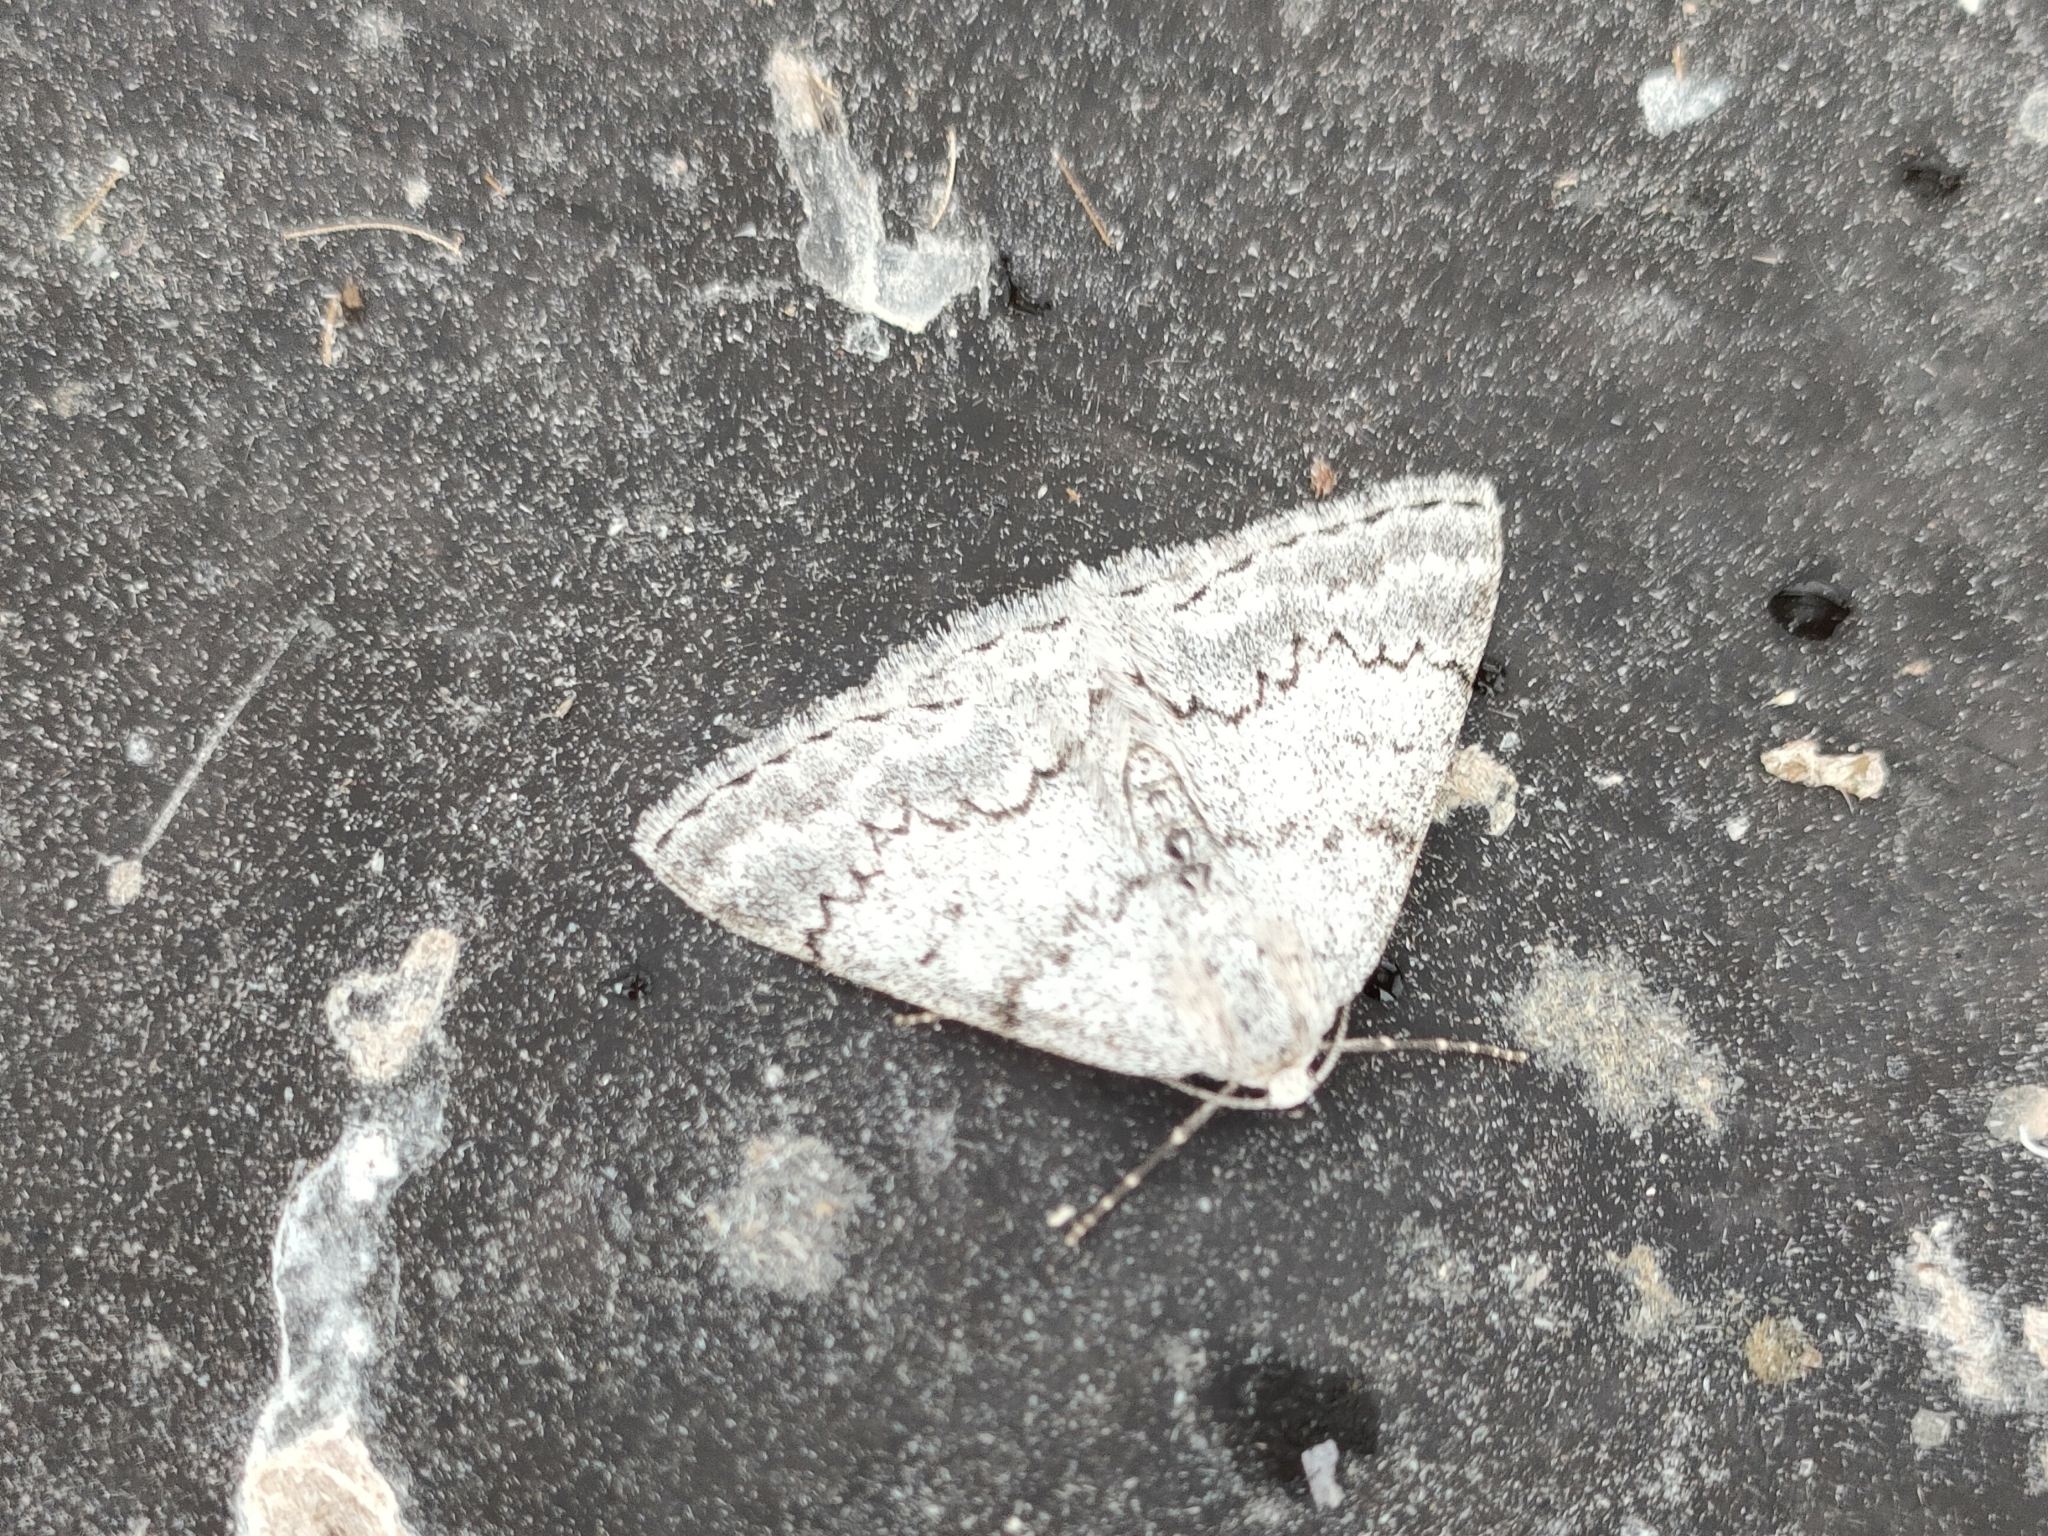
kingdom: Animalia
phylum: Arthropoda
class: Insecta
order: Lepidoptera
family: Geometridae
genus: Pseudoterpna
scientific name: Pseudoterpna coronillaria
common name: Jersey emerald
